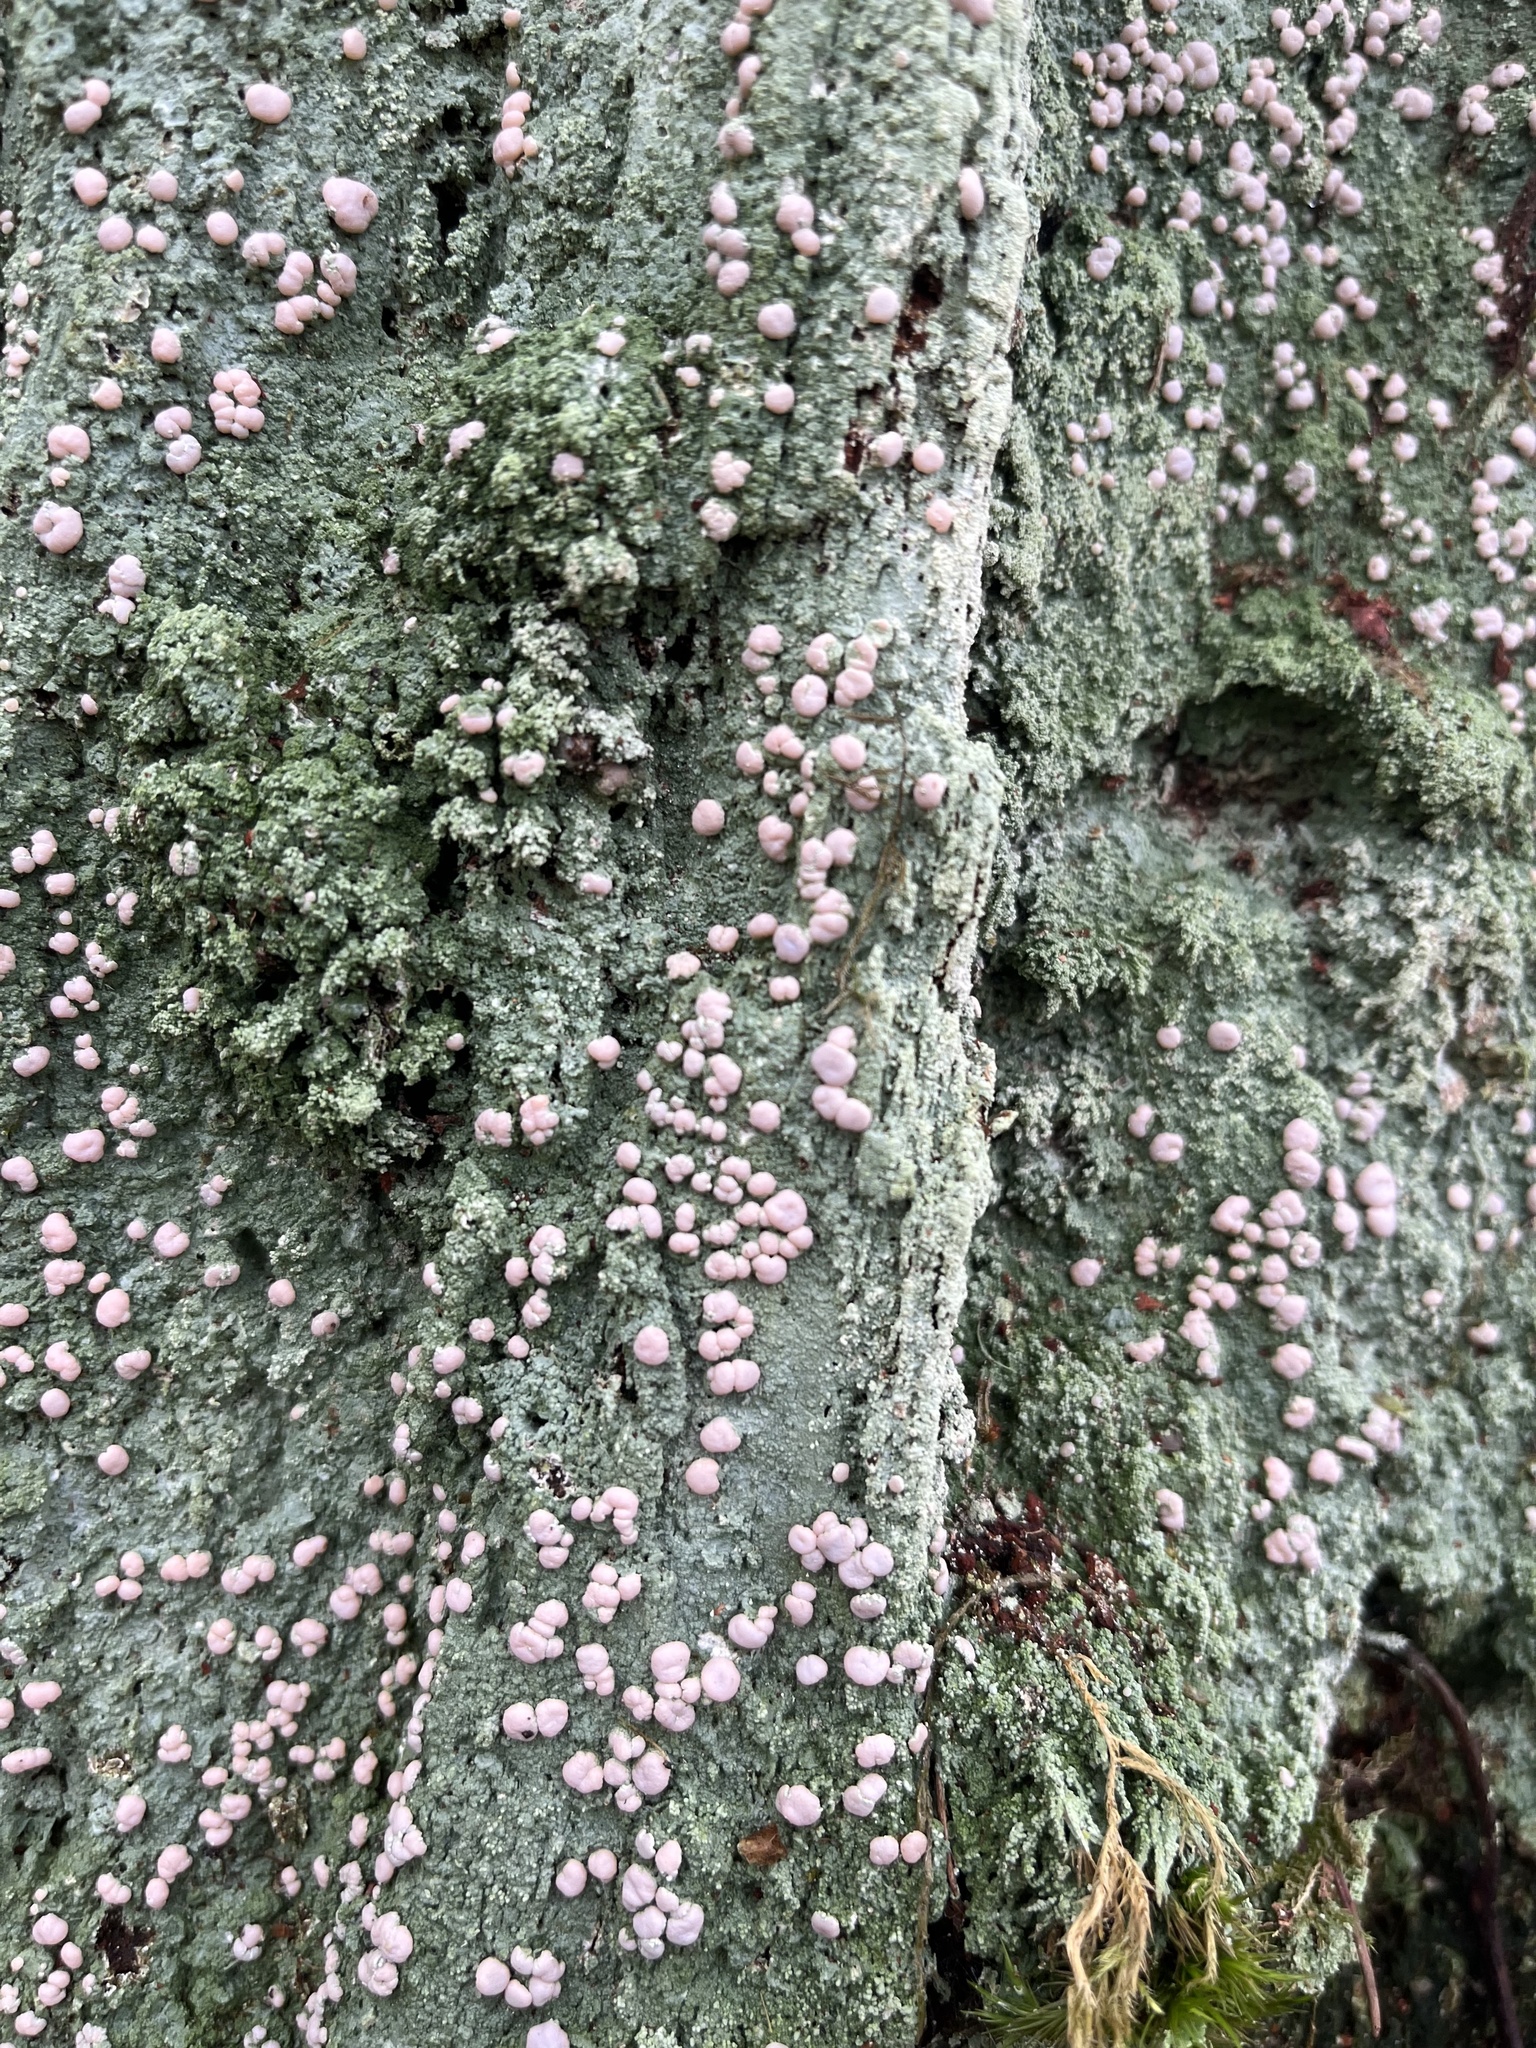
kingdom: Fungi
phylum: Ascomycota
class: Lecanoromycetes
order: Pertusariales
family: Icmadophilaceae
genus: Icmadophila
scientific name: Icmadophila ericetorum
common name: Candy lichen
